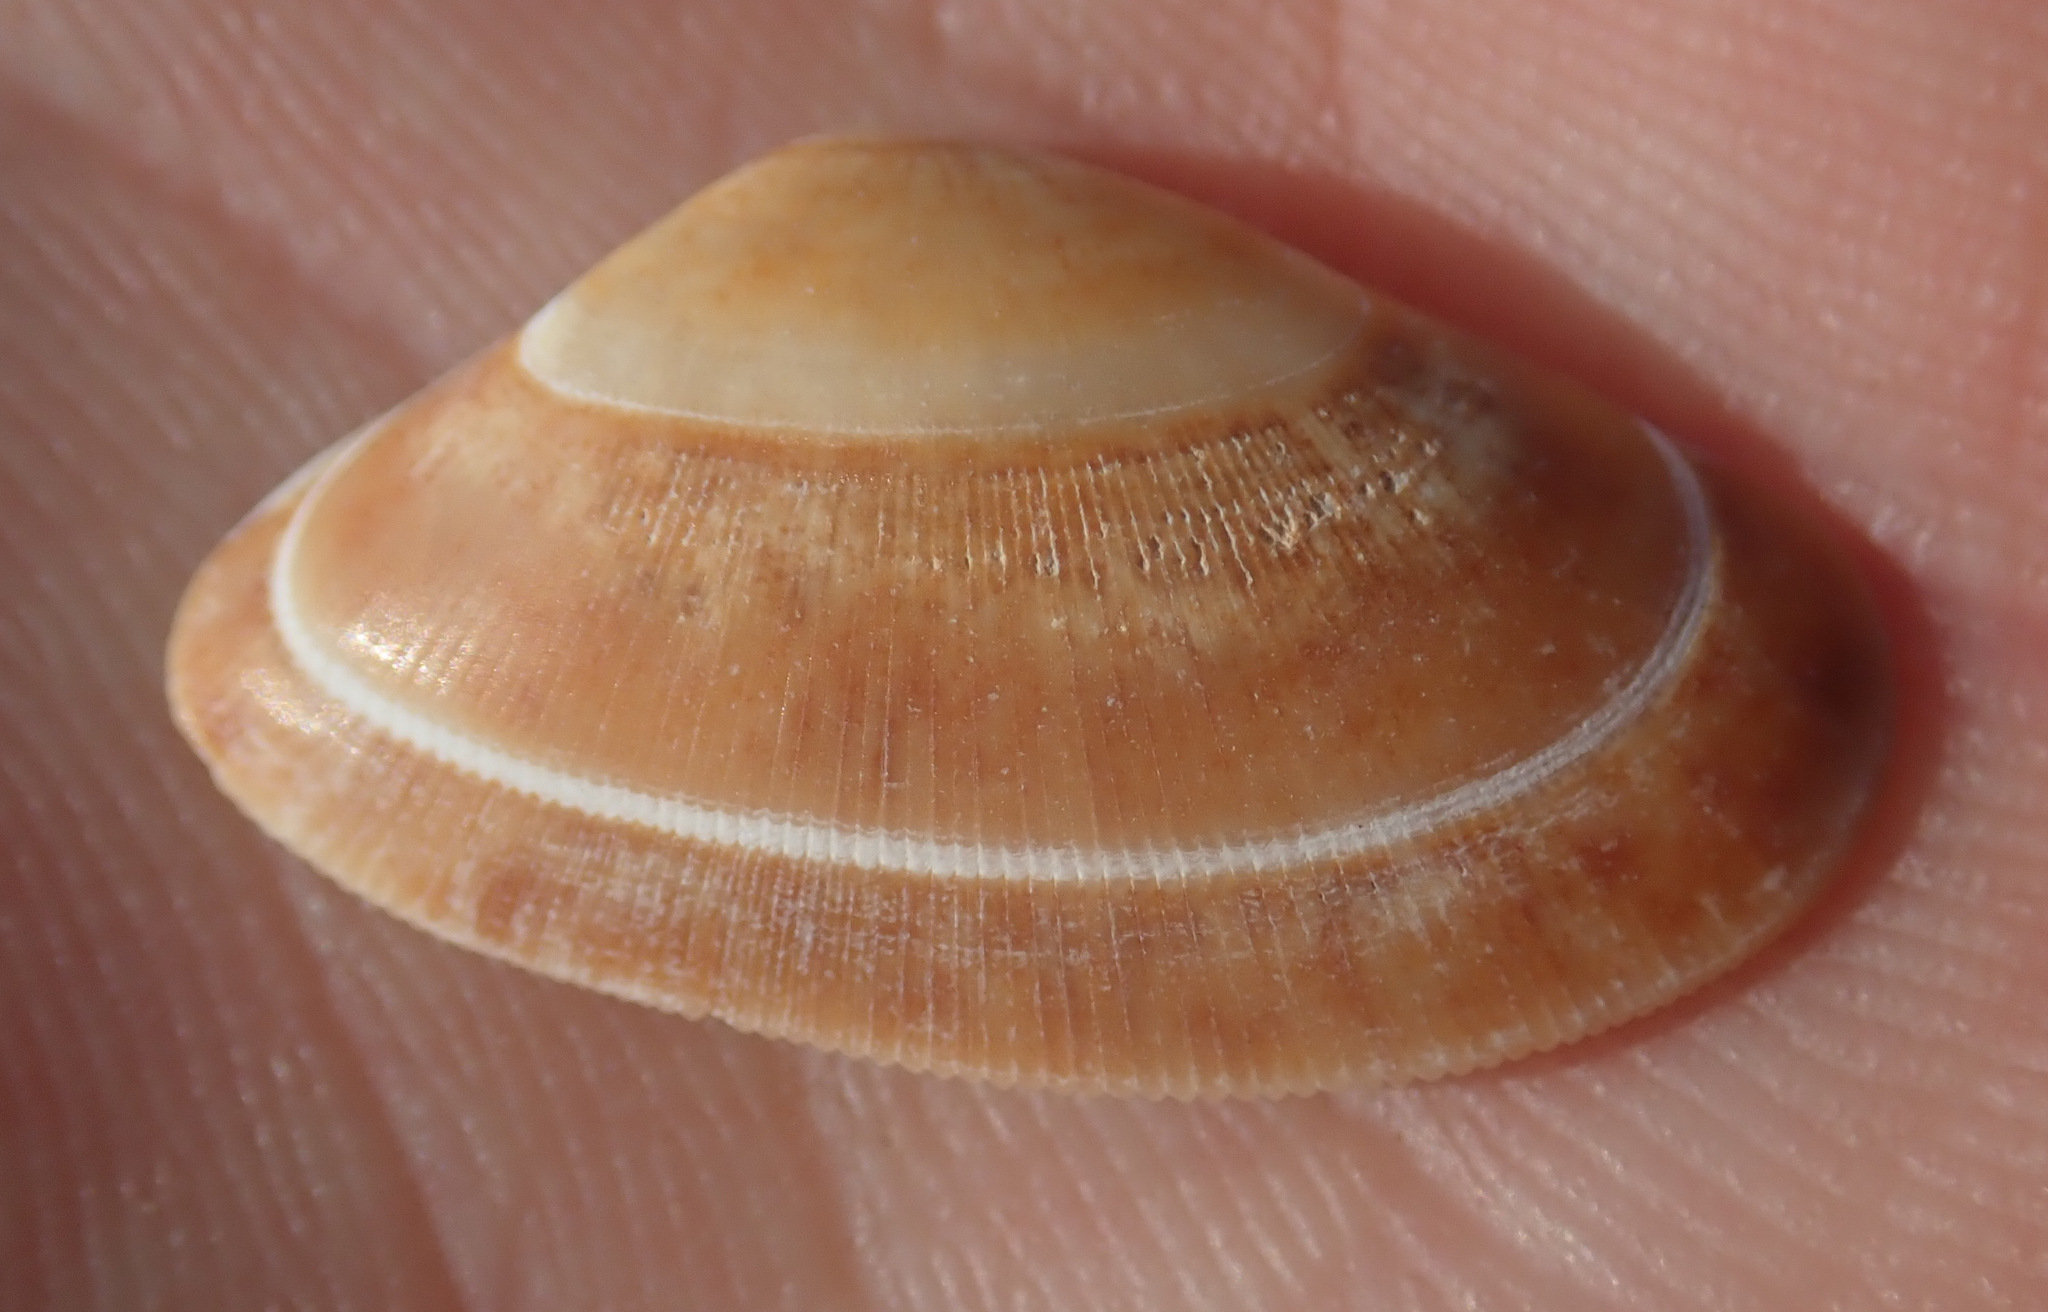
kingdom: Animalia
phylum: Mollusca
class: Bivalvia
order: Cardiida
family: Donacidae
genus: Donax
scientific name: Donax vittatus
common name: Banded wedge-shell
